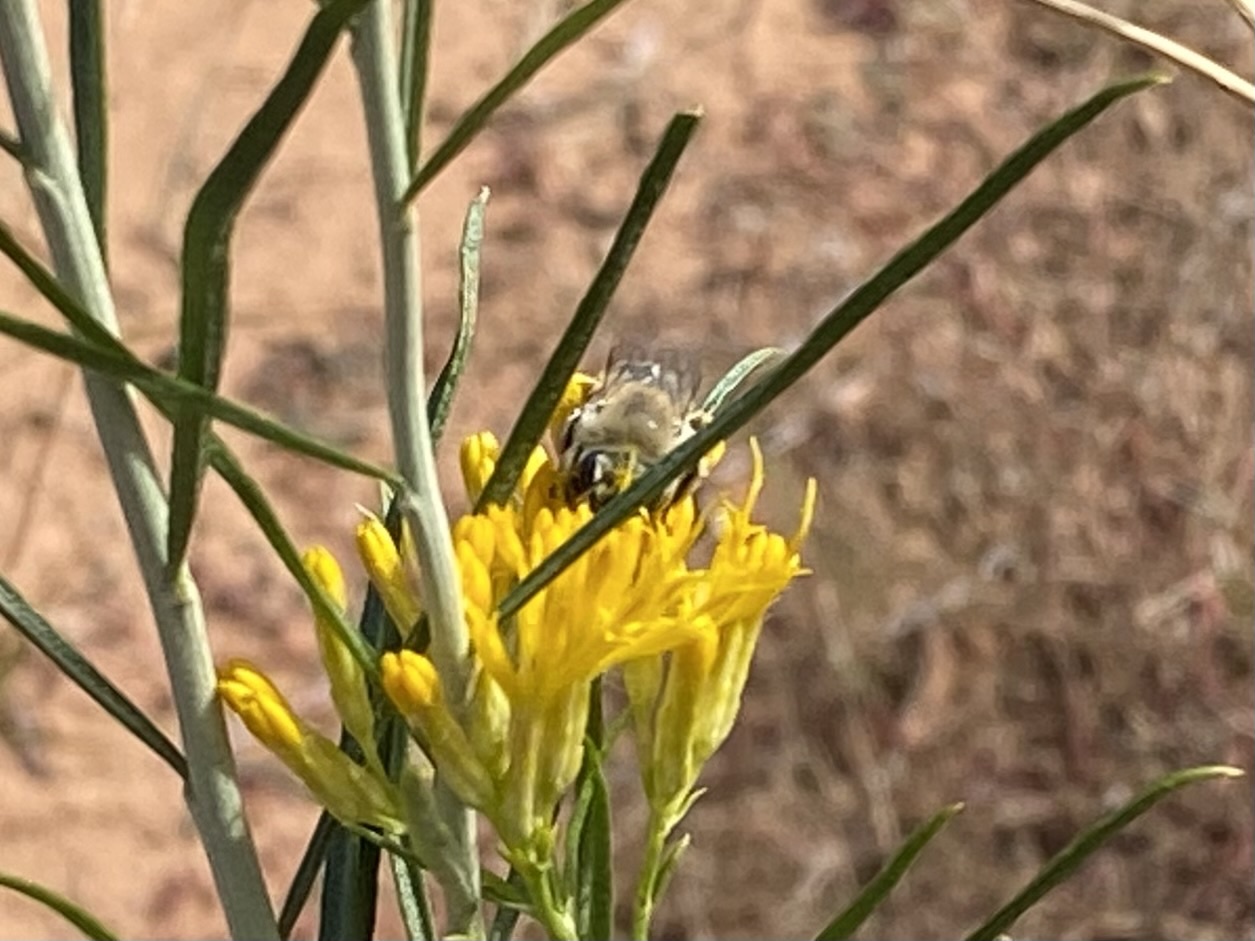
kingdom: Animalia
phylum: Arthropoda
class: Insecta
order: Hymenoptera
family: Apidae
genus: Melissodes
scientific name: Melissodes
